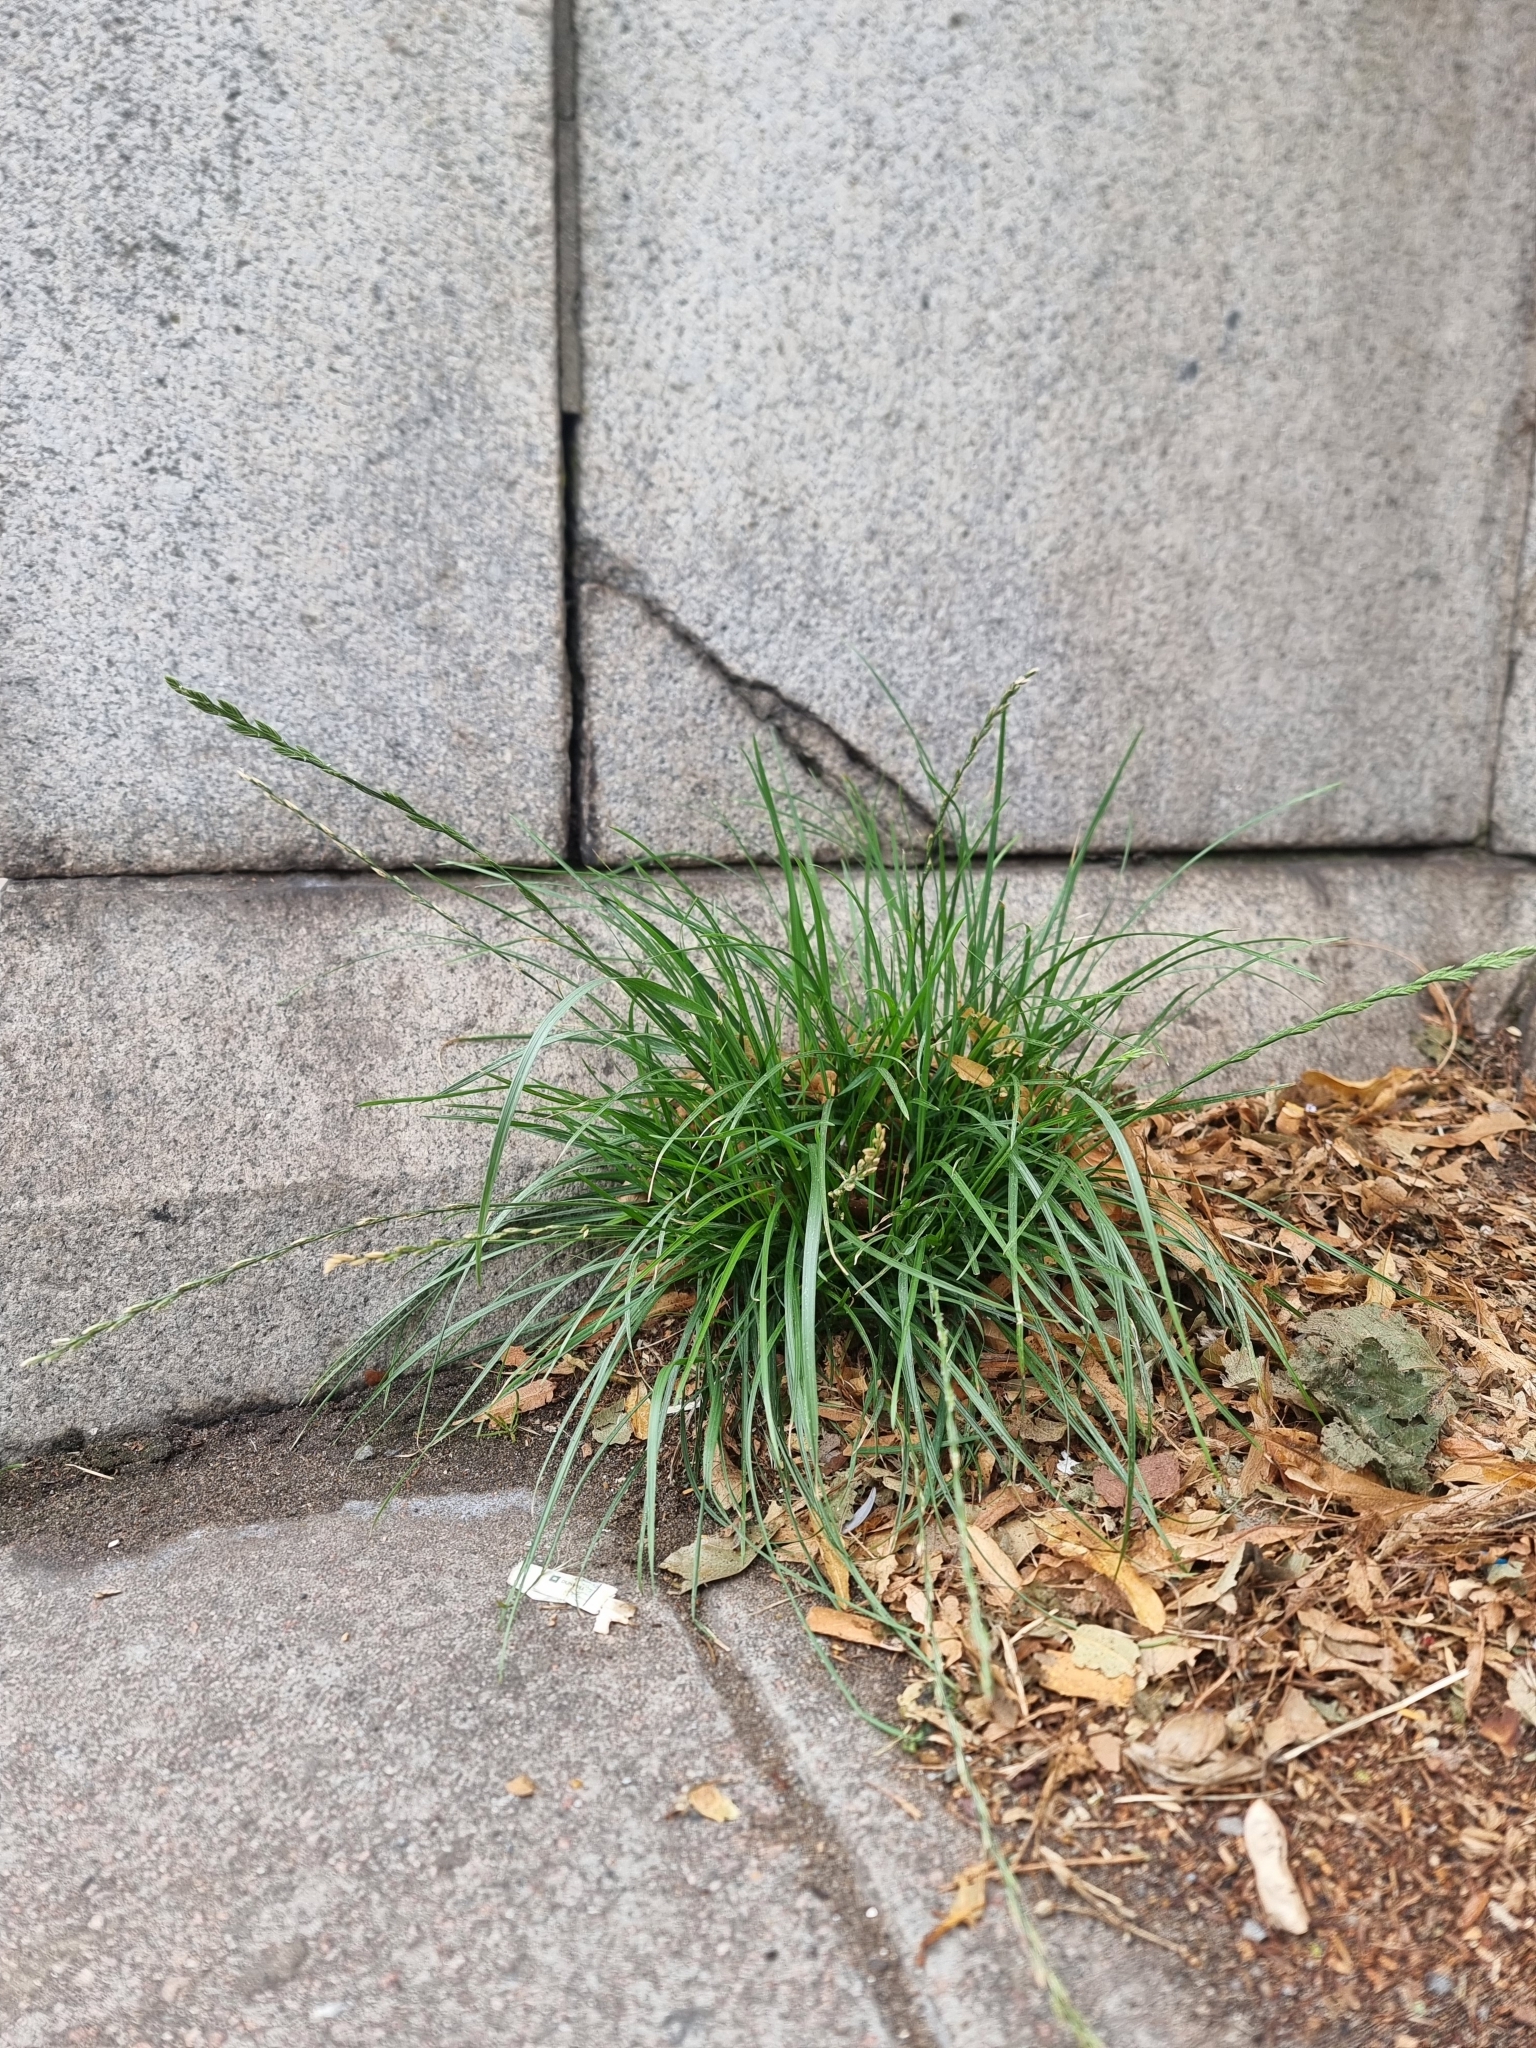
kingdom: Plantae
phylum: Tracheophyta
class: Liliopsida
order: Poales
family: Poaceae
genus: Lolium
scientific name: Lolium perenne
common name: Perennial ryegrass
